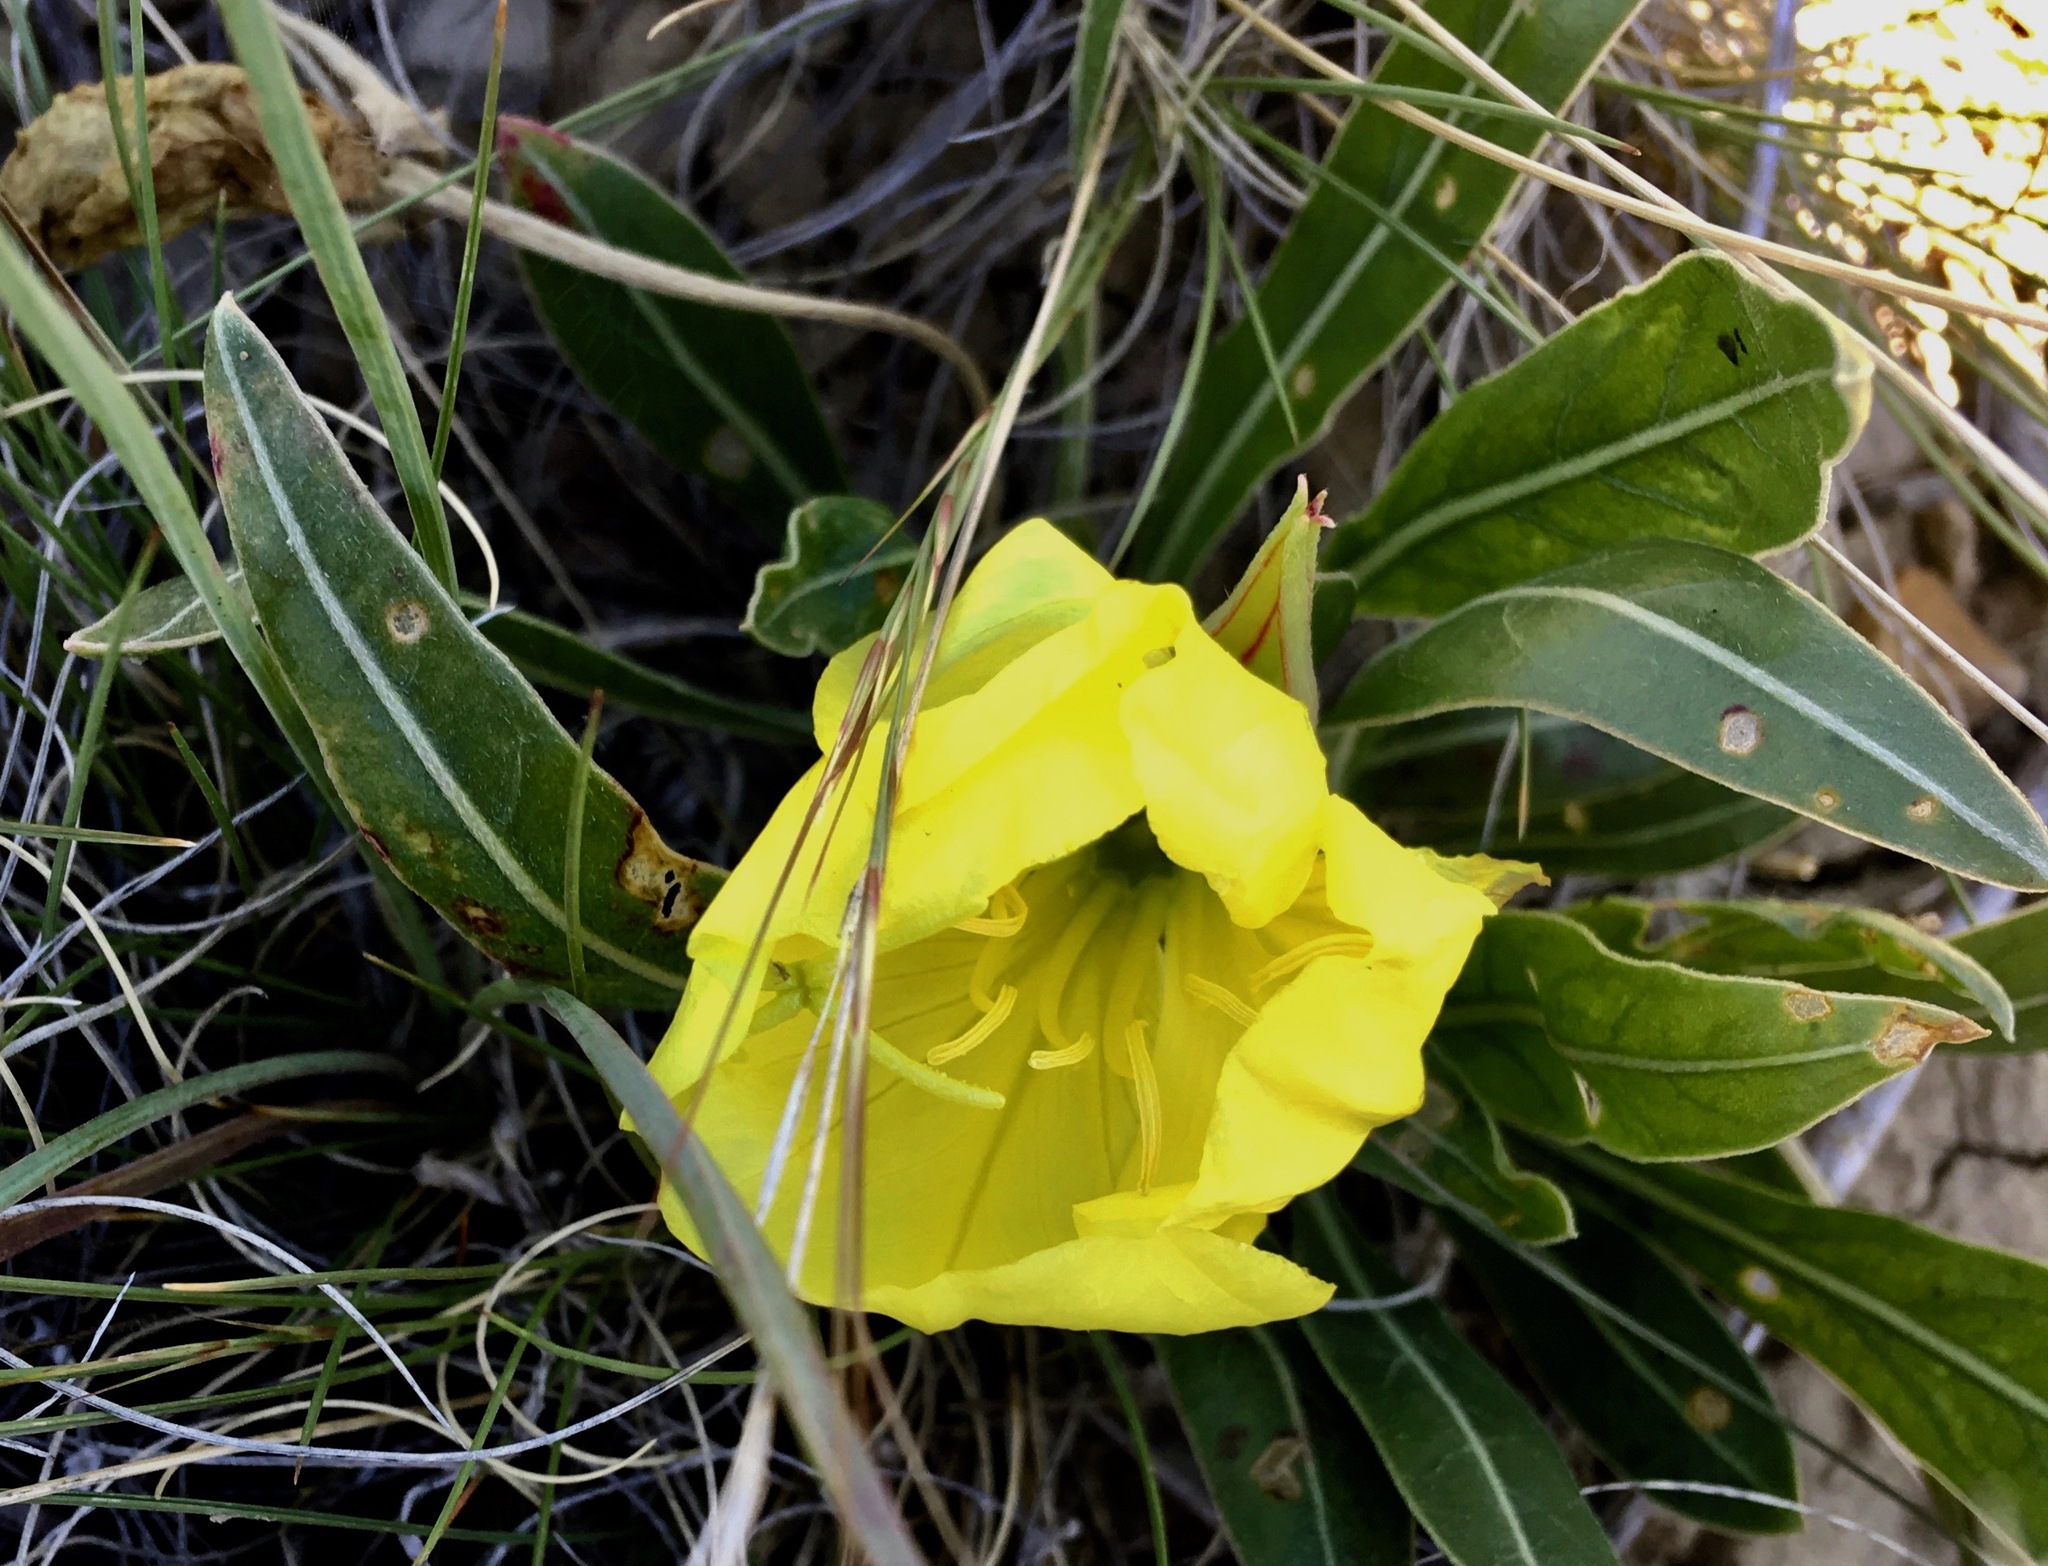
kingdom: Plantae
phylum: Tracheophyta
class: Magnoliopsida
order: Myrtales
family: Onagraceae
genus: Oenothera
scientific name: Oenothera howardii
